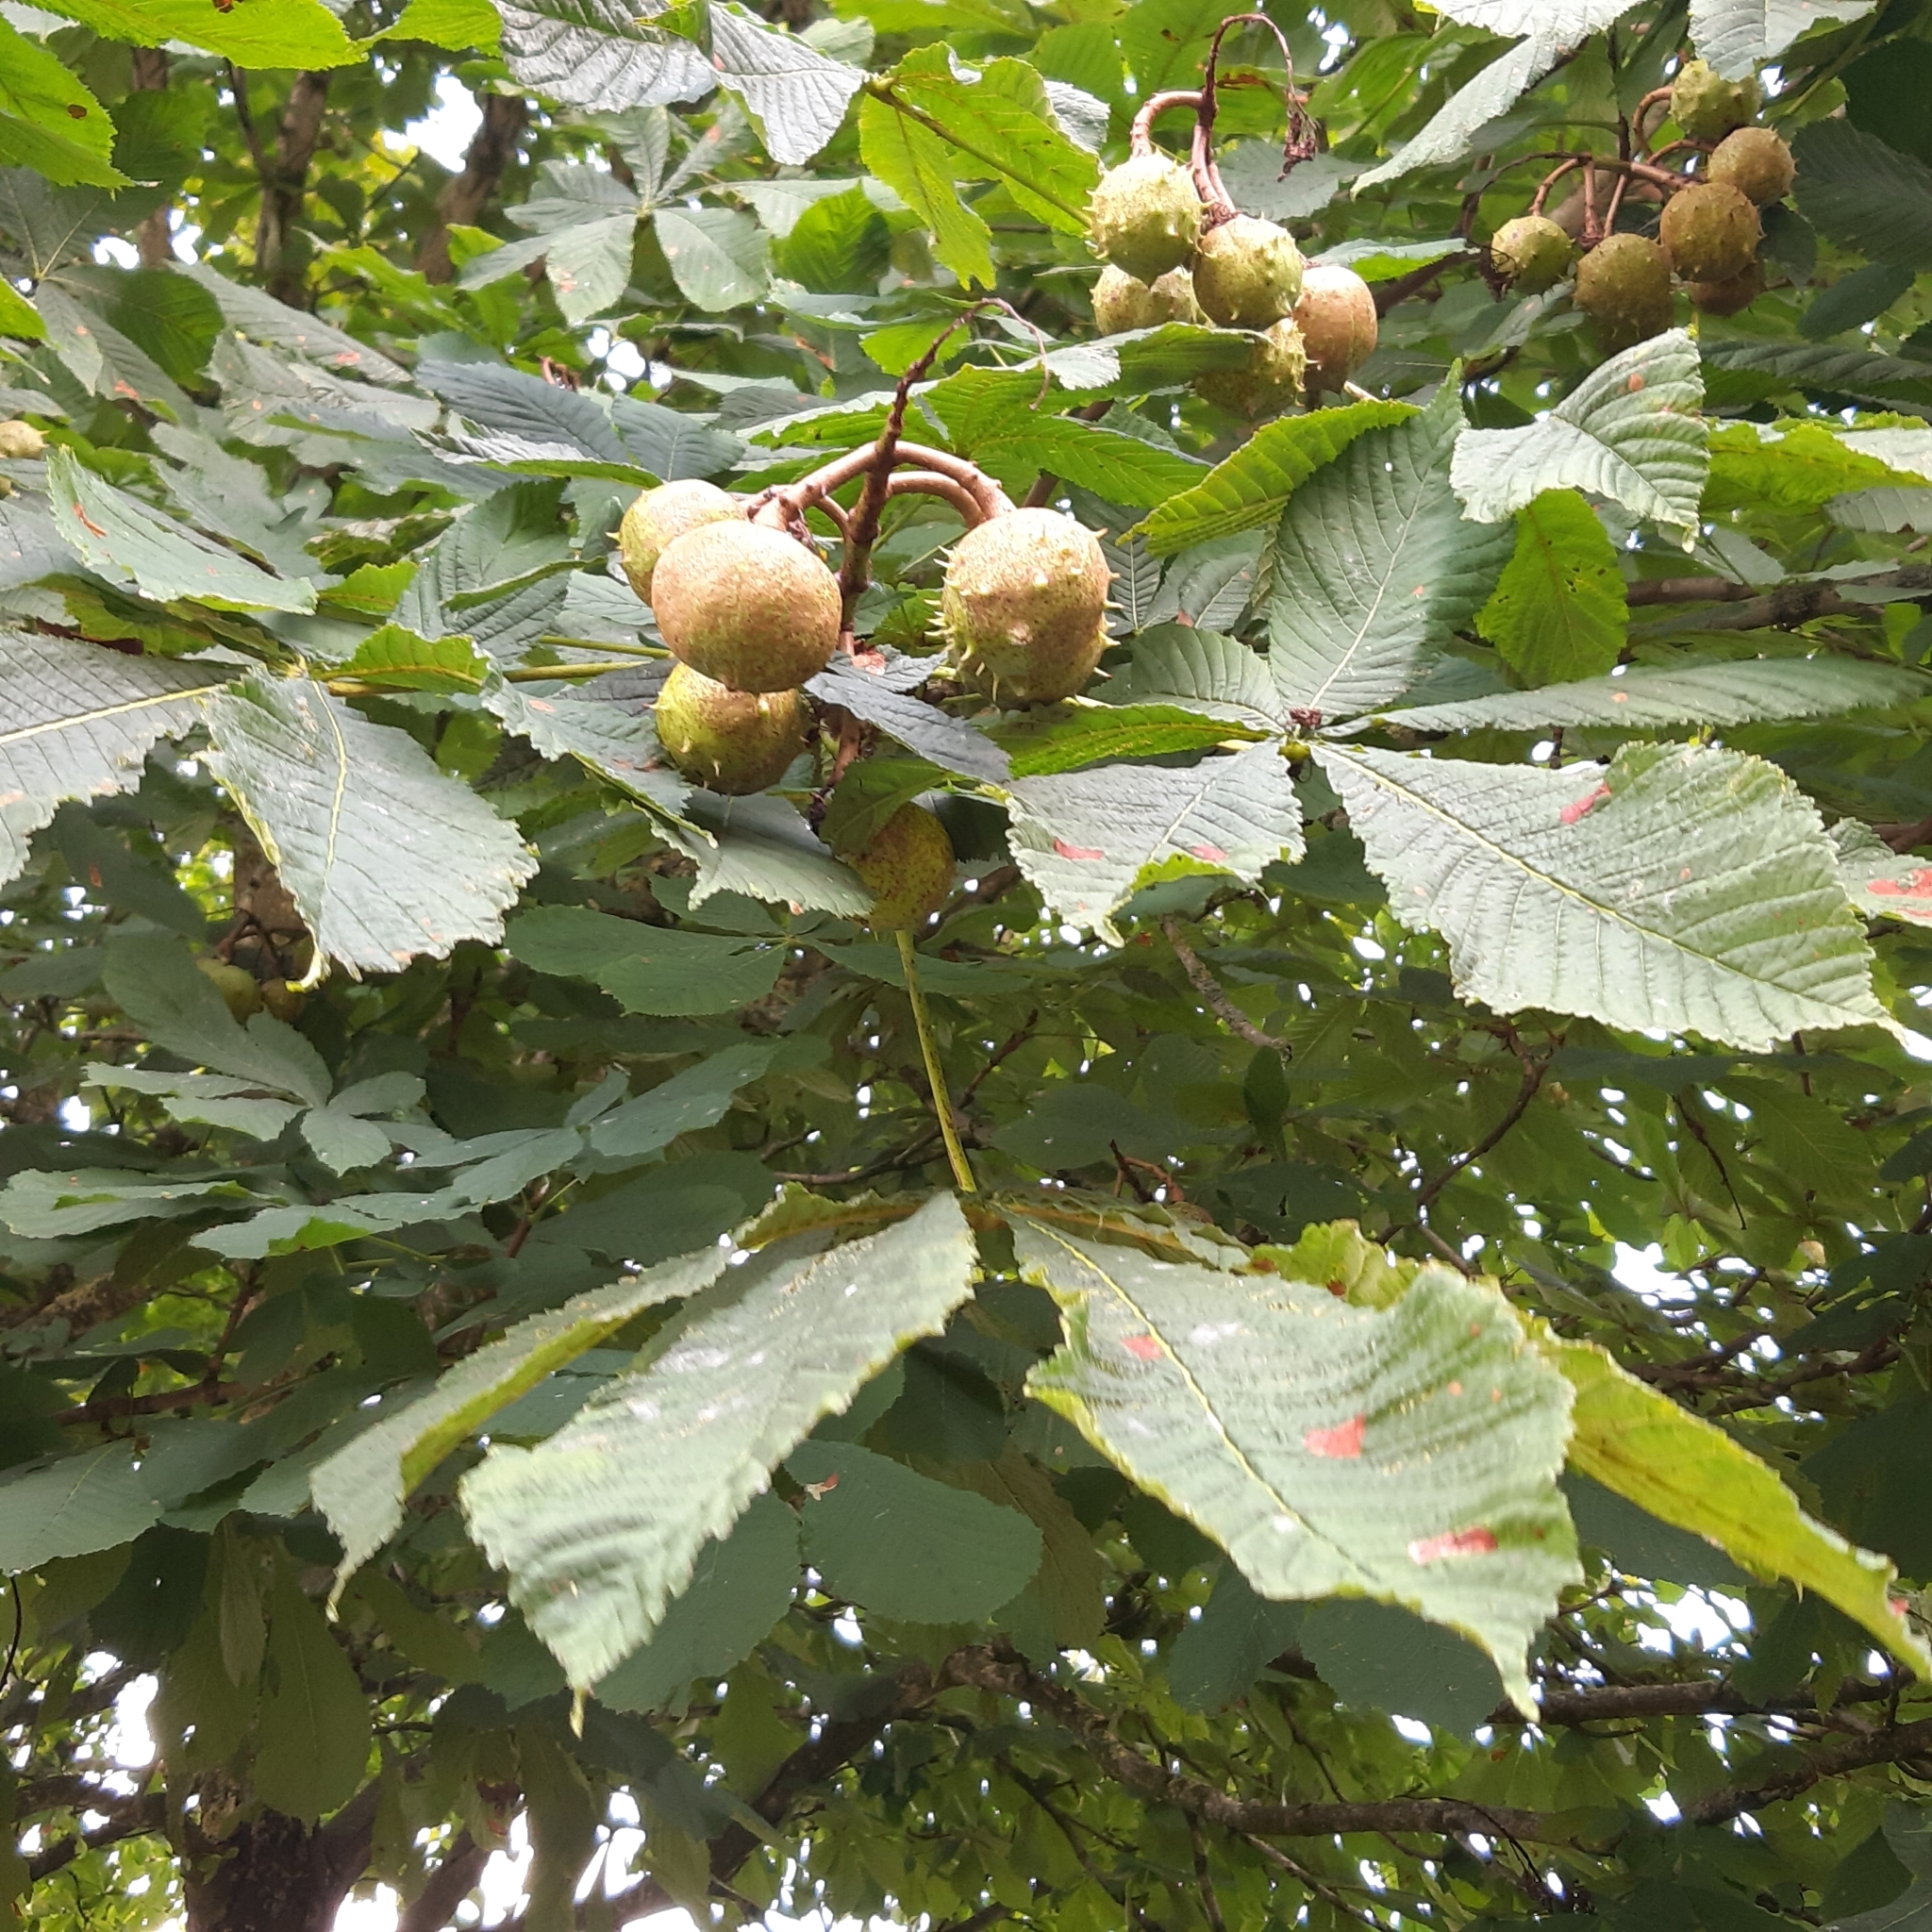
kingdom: Plantae
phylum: Tracheophyta
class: Magnoliopsida
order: Sapindales
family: Sapindaceae
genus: Aesculus
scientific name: Aesculus hippocastanum
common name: Horse-chestnut
